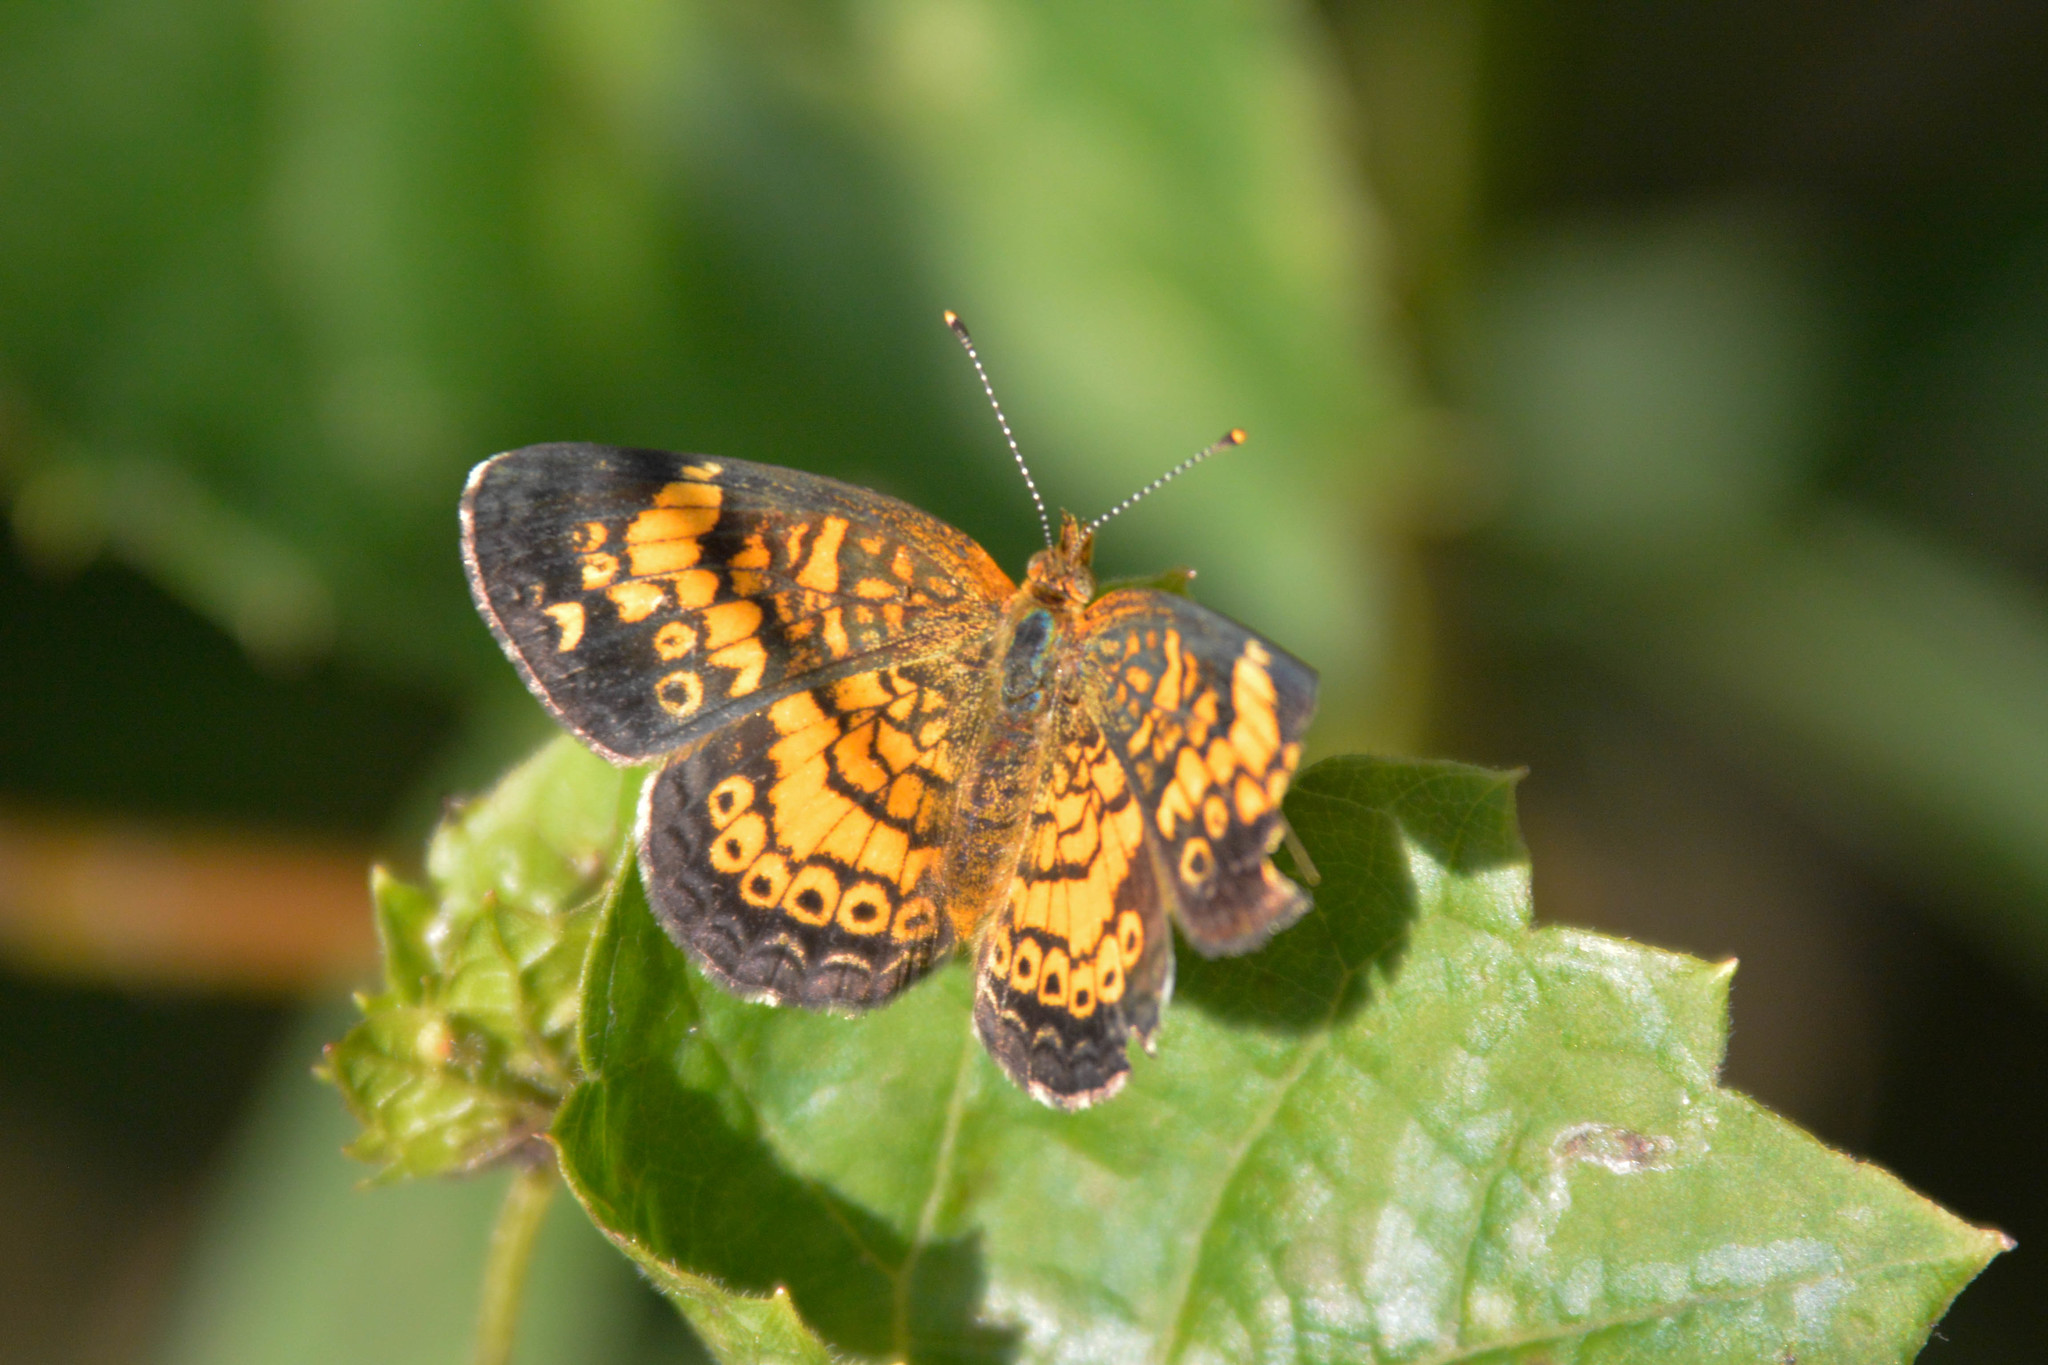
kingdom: Animalia
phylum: Arthropoda
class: Insecta
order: Lepidoptera
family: Nymphalidae
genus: Phyciodes
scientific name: Phyciodes tharos
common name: Pearl crescent
